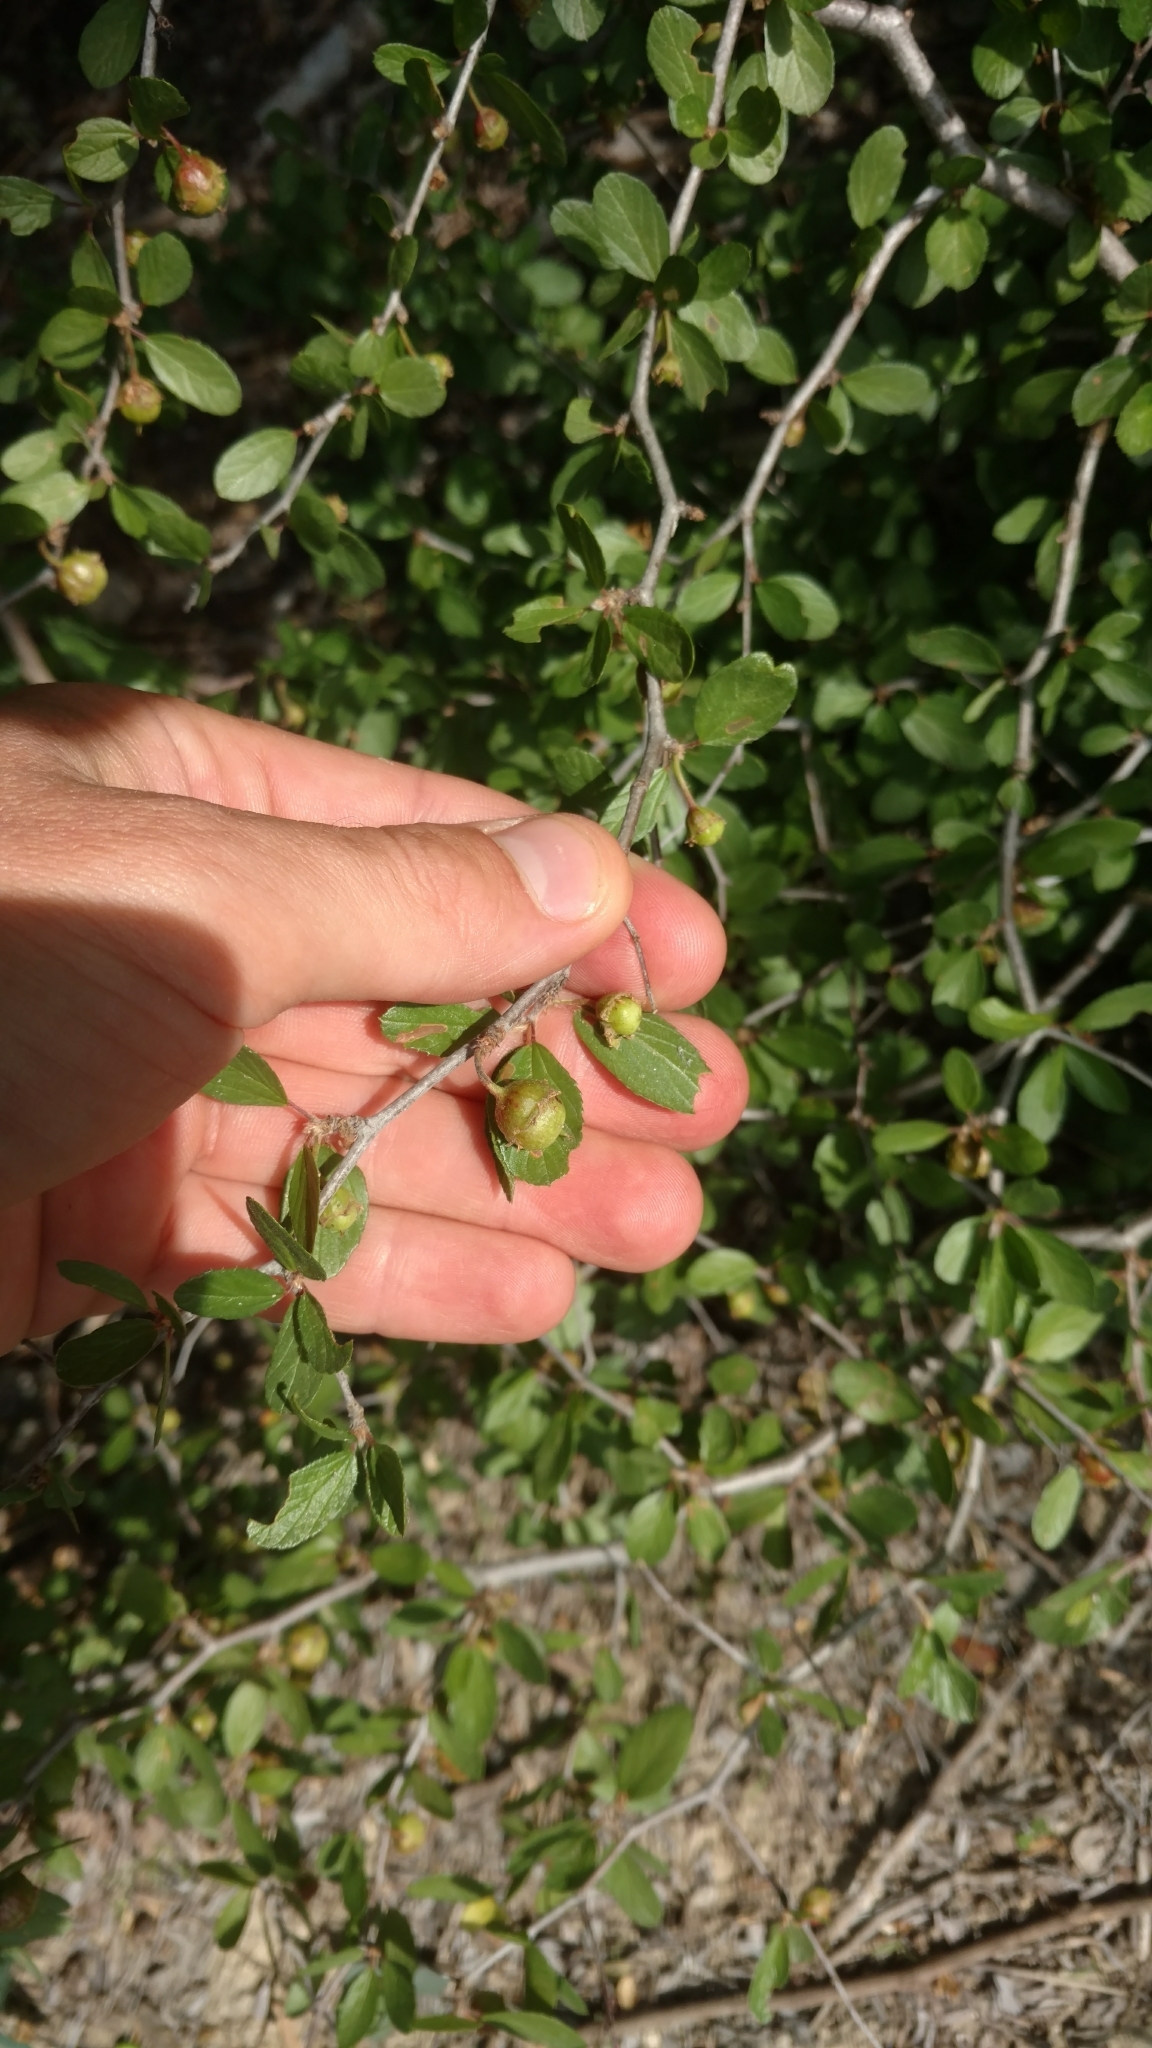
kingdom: Plantae
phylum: Tracheophyta
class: Magnoliopsida
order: Rosales
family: Rhamnaceae
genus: Colubrina
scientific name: Colubrina texensis
